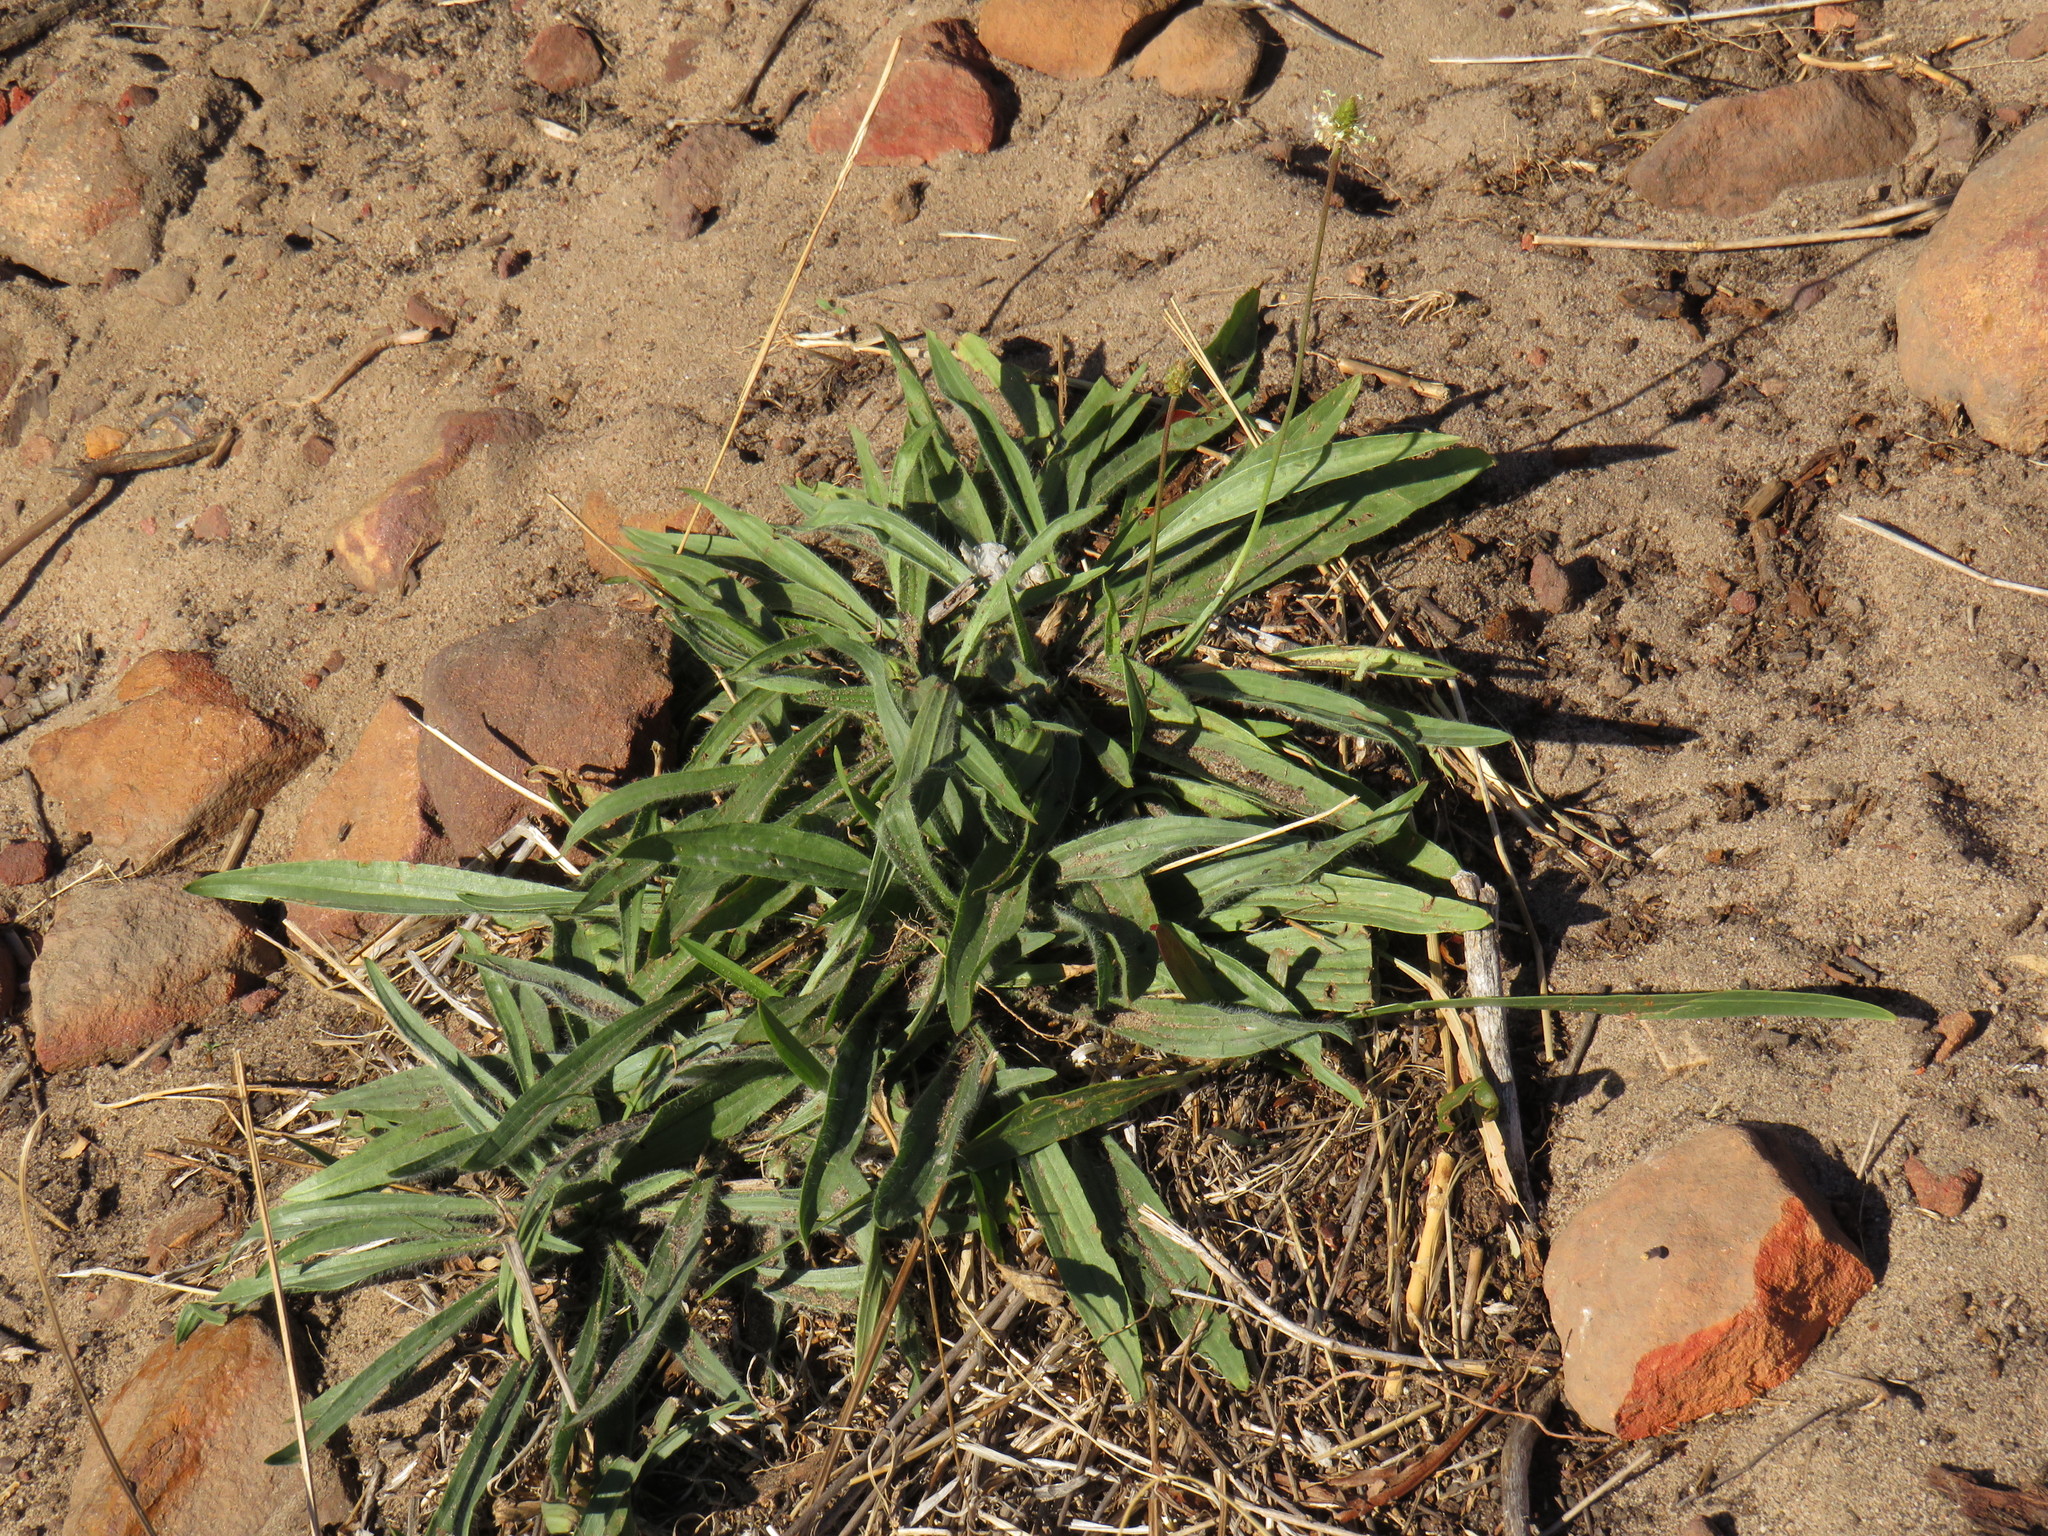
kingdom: Plantae
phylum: Tracheophyta
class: Magnoliopsida
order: Lamiales
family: Plantaginaceae
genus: Plantago
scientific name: Plantago lanceolata
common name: Ribwort plantain
